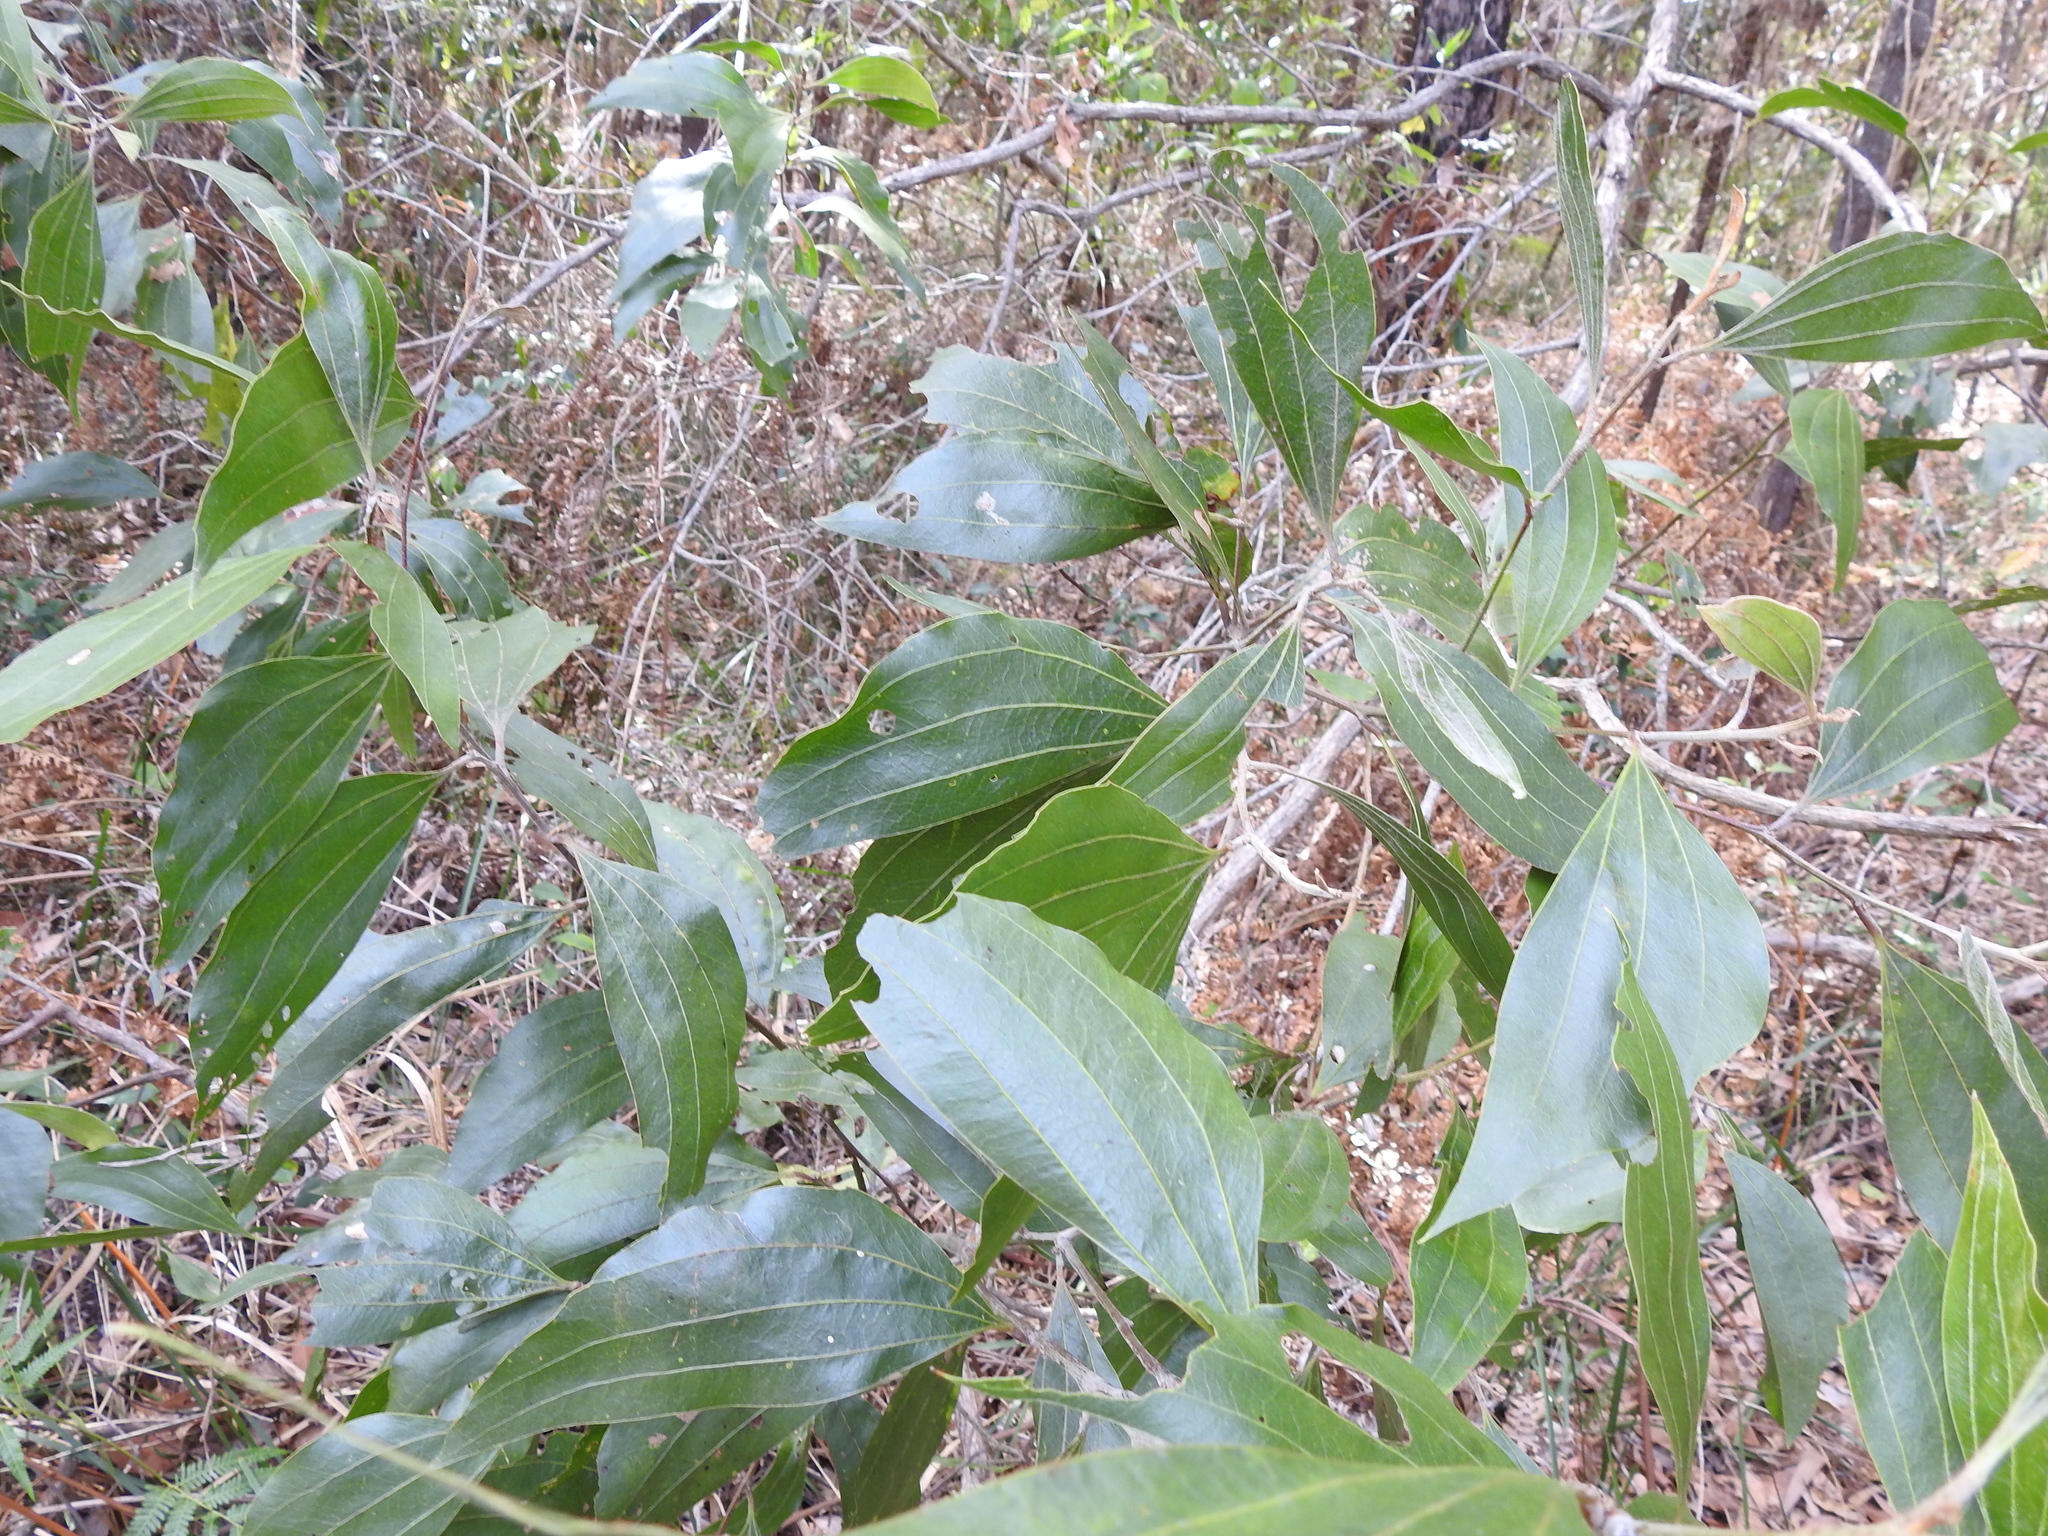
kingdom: Plantae
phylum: Tracheophyta
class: Magnoliopsida
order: Fabales
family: Fabaceae
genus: Acacia
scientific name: Acacia flavescens
